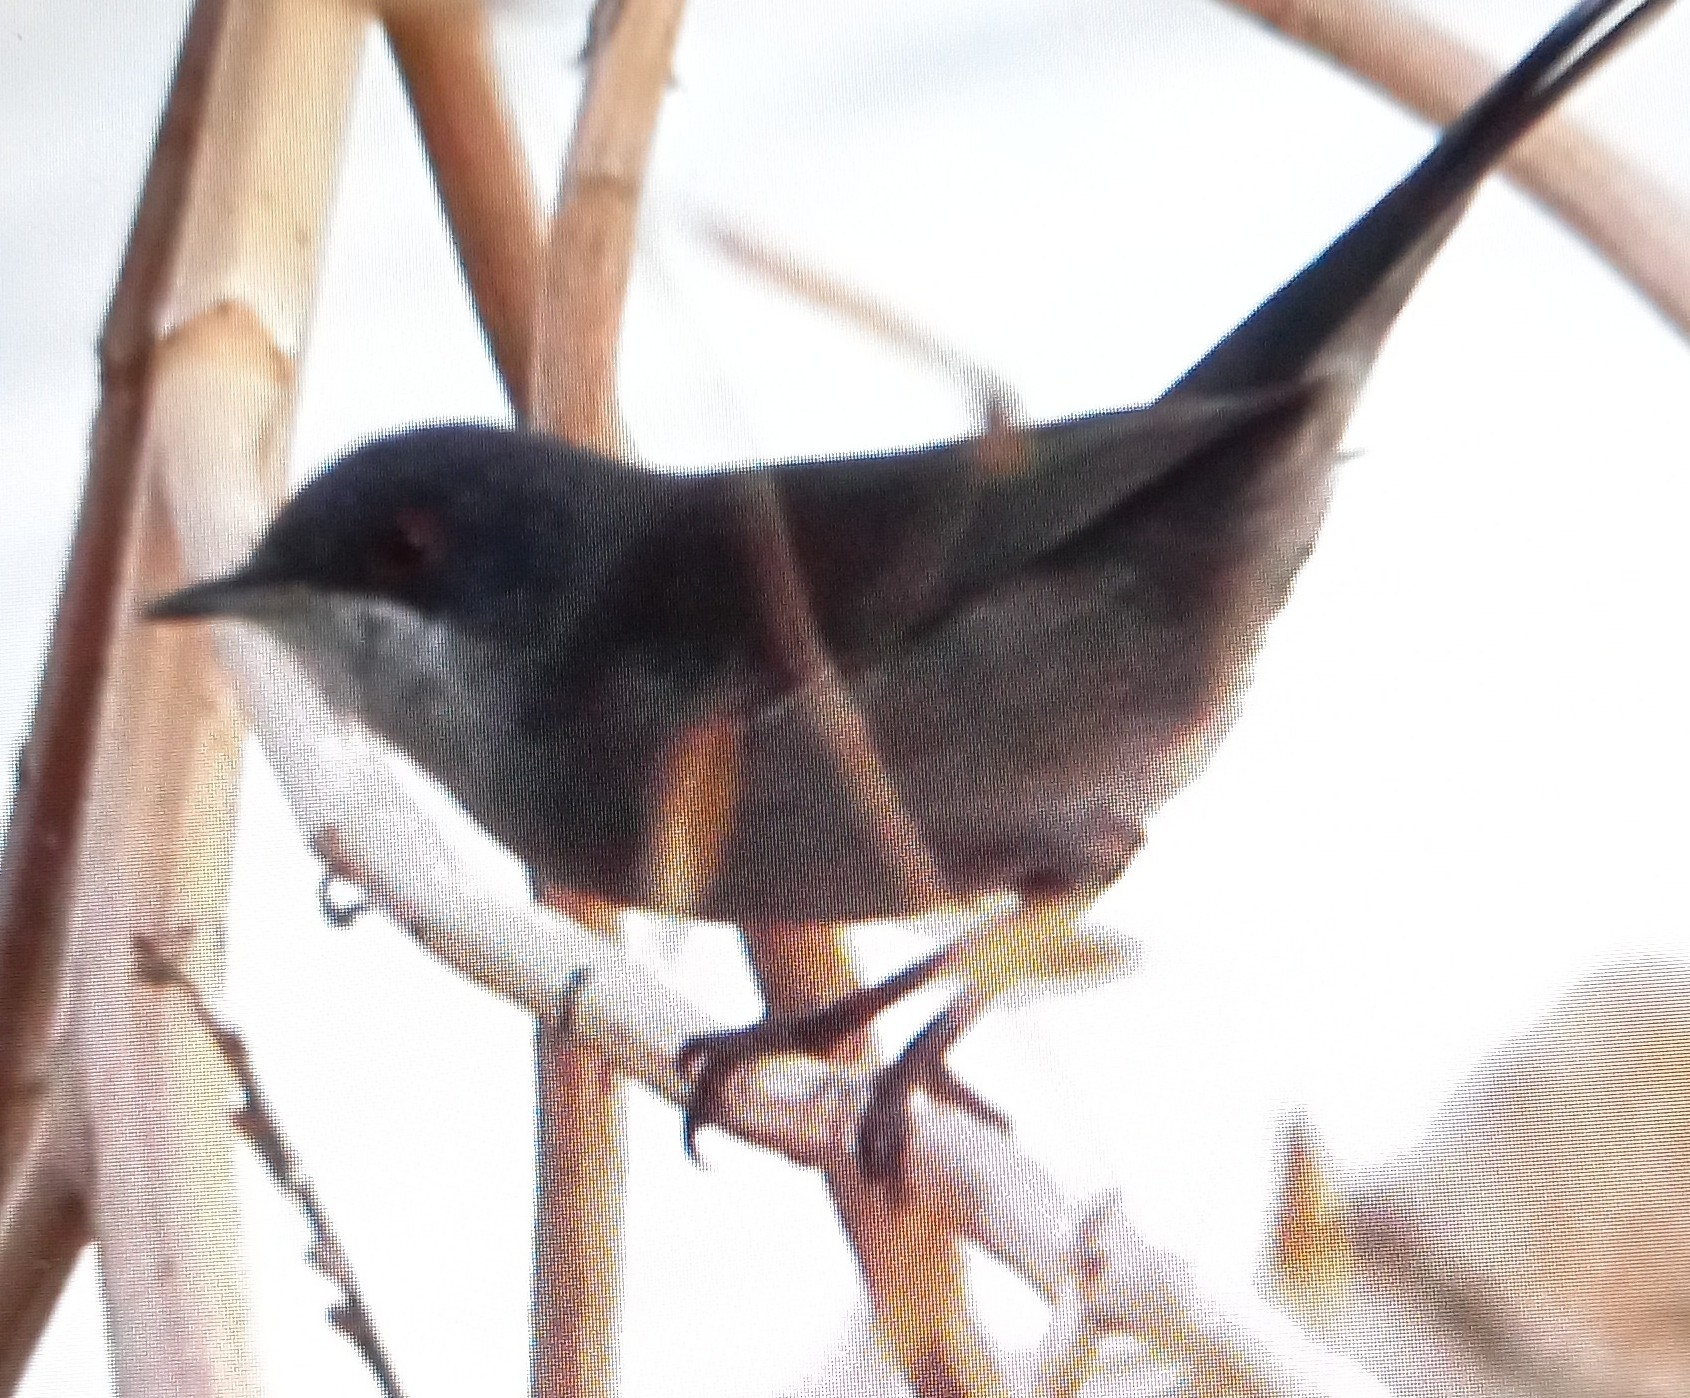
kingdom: Animalia
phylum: Chordata
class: Aves
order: Passeriformes
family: Sylviidae
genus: Curruca
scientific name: Curruca melanocephala
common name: Sardinian warbler
